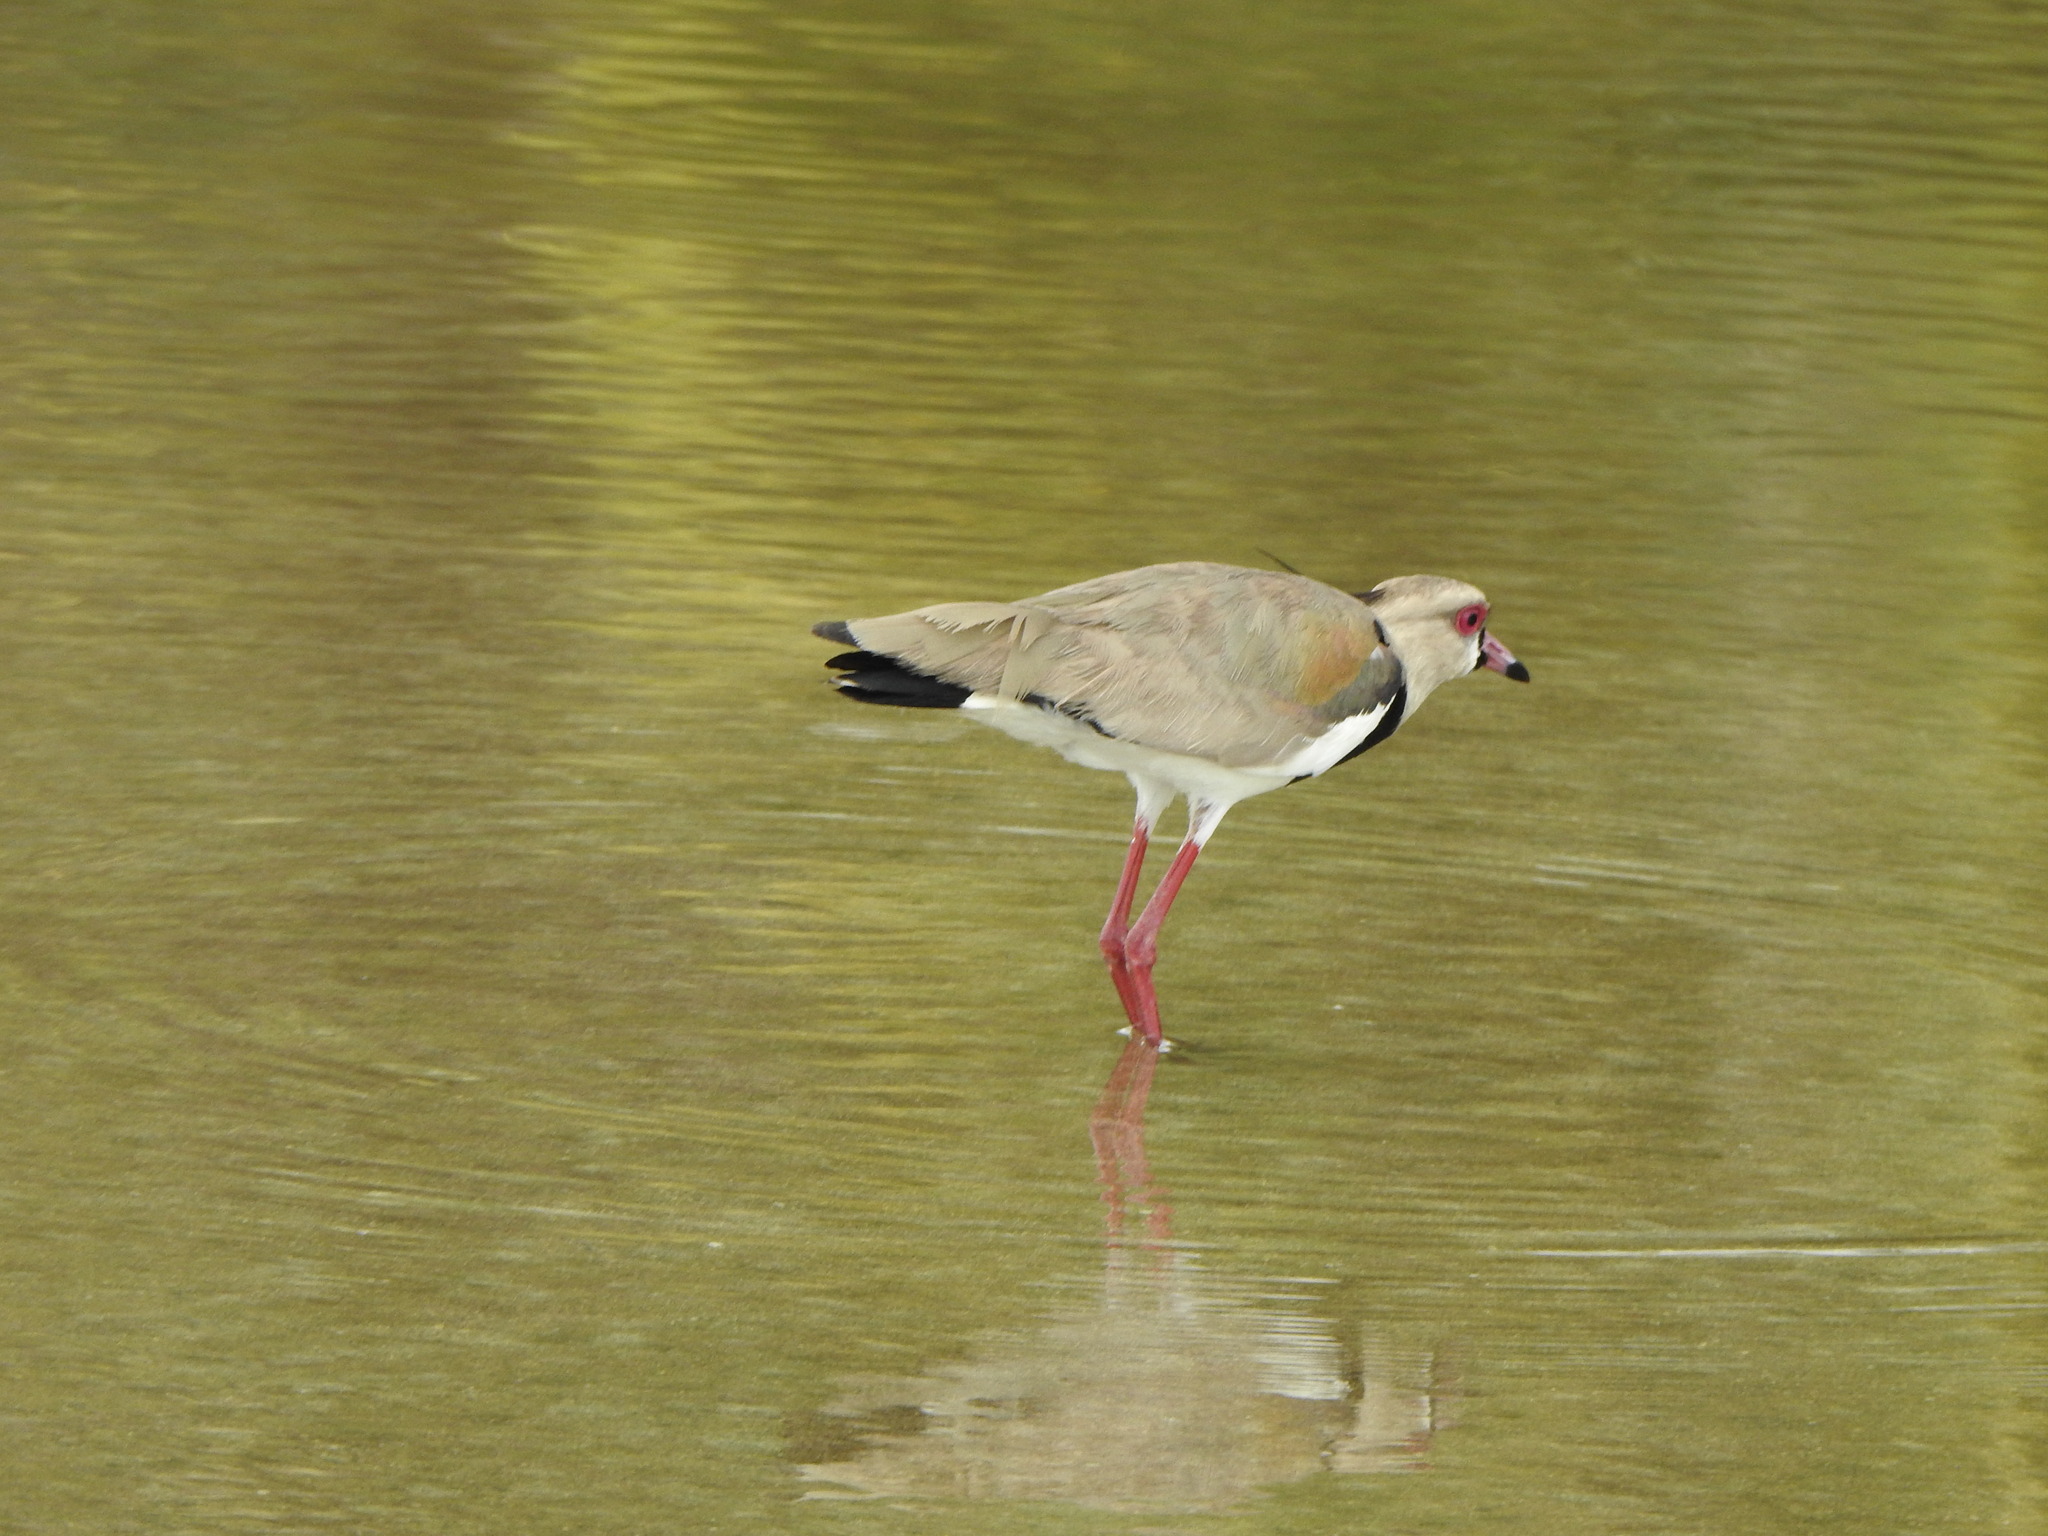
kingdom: Animalia
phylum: Chordata
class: Aves
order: Charadriiformes
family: Charadriidae
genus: Vanellus
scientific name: Vanellus chilensis
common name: Southern lapwing
